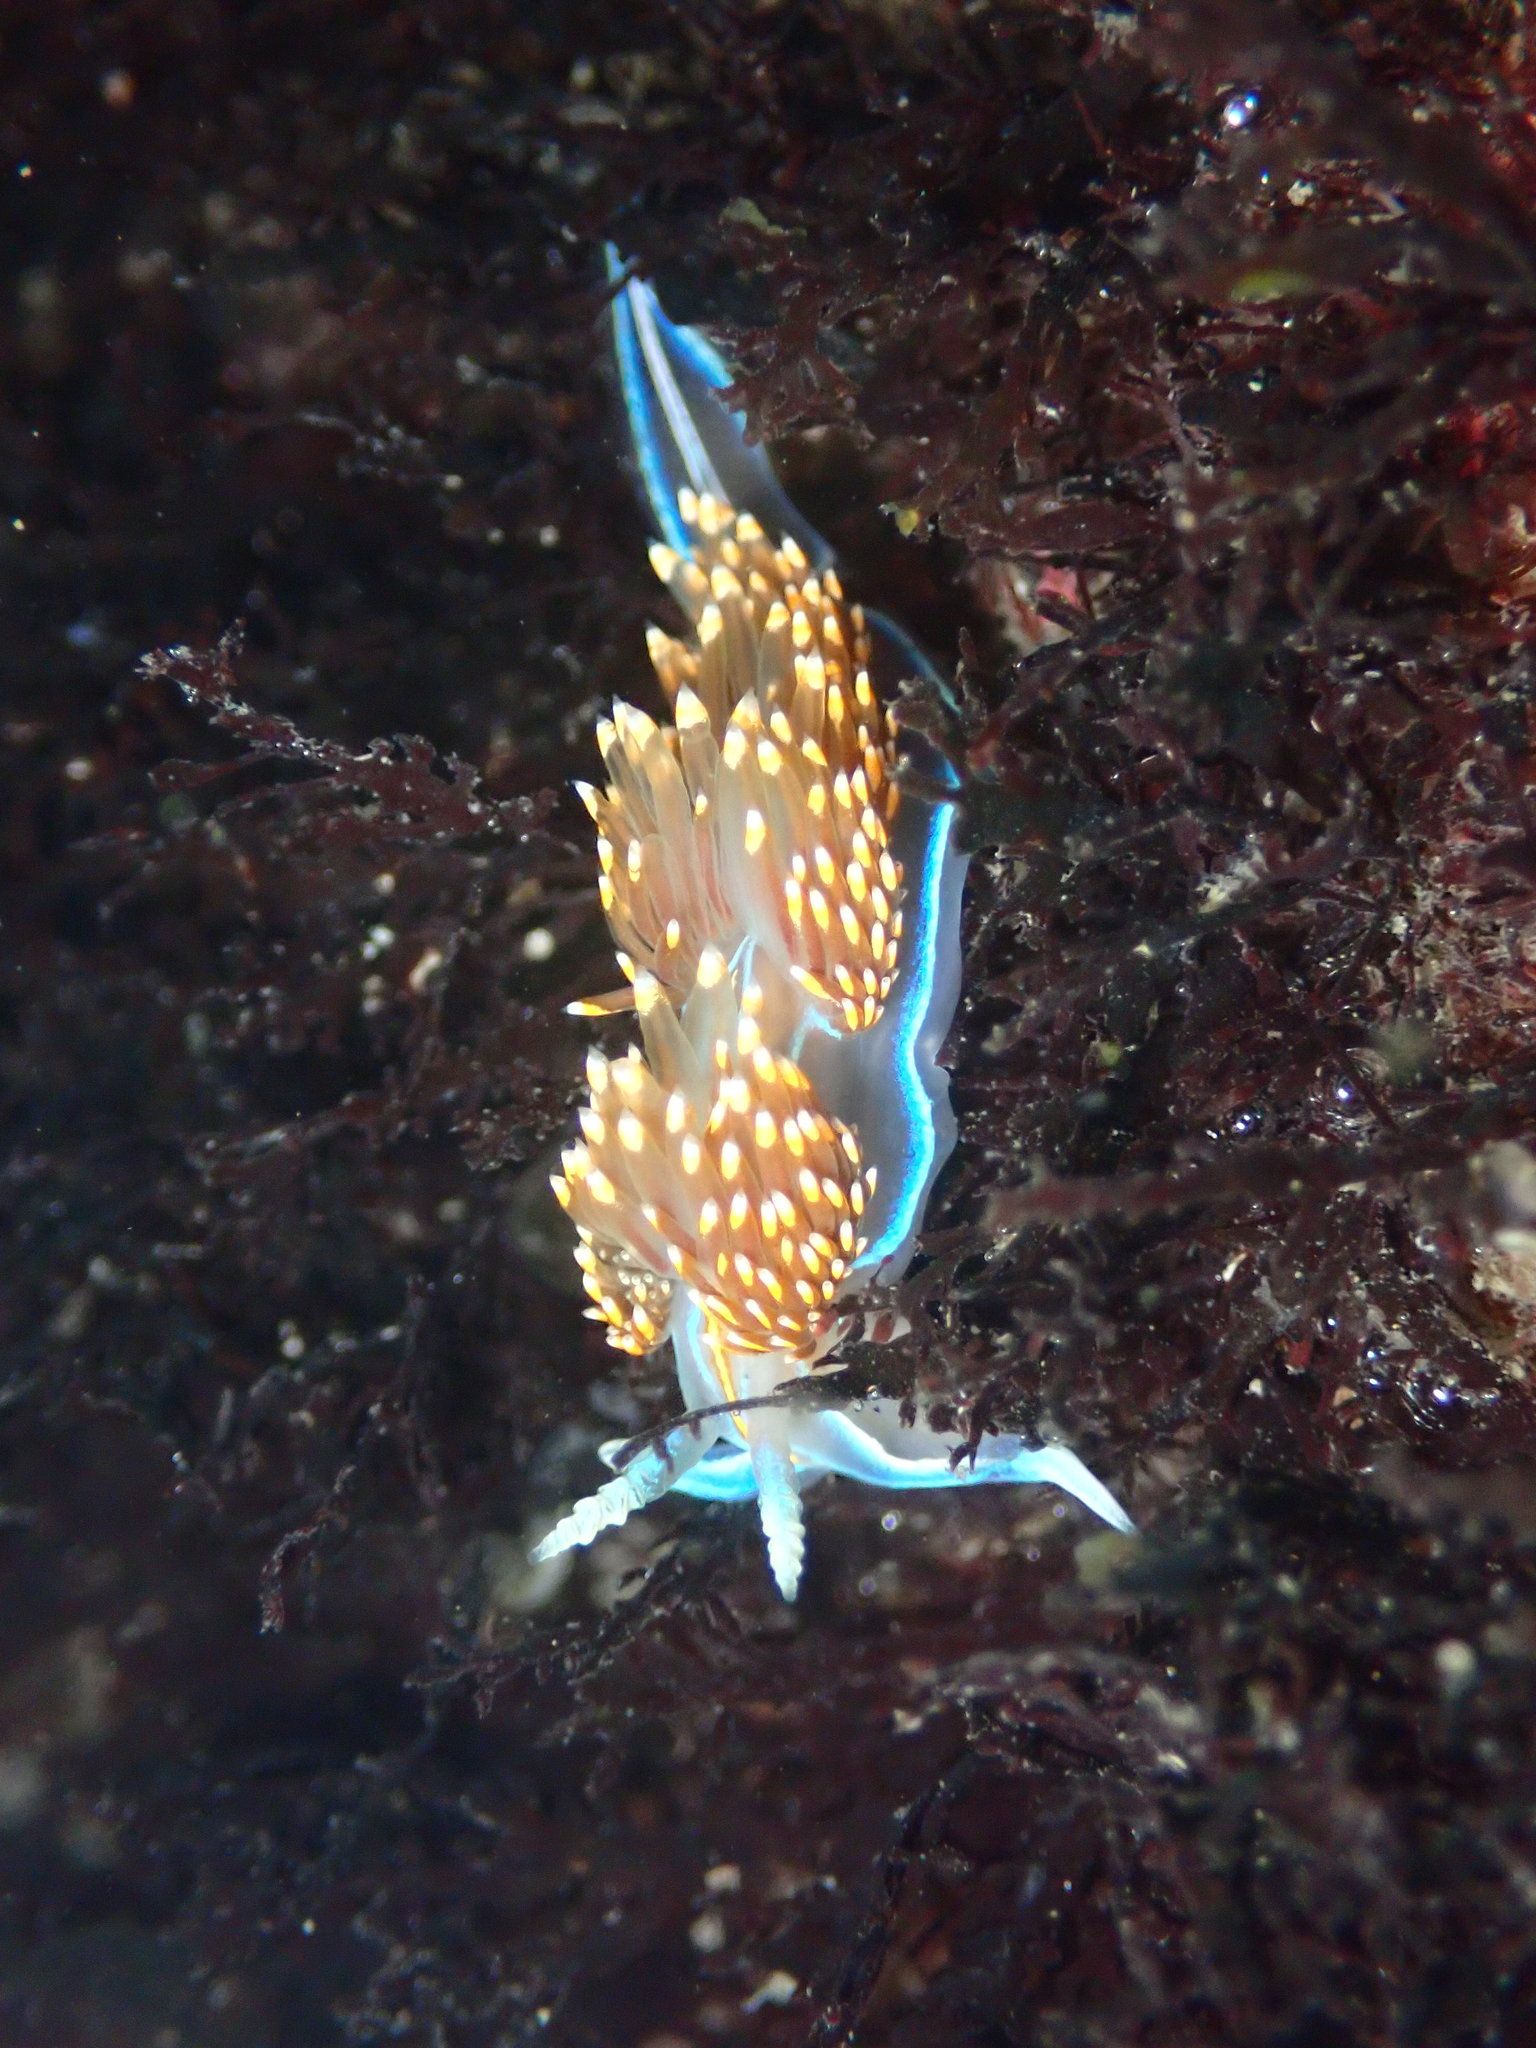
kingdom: Animalia
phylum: Mollusca
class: Gastropoda
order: Nudibranchia
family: Myrrhinidae
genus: Hermissenda
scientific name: Hermissenda opalescens
